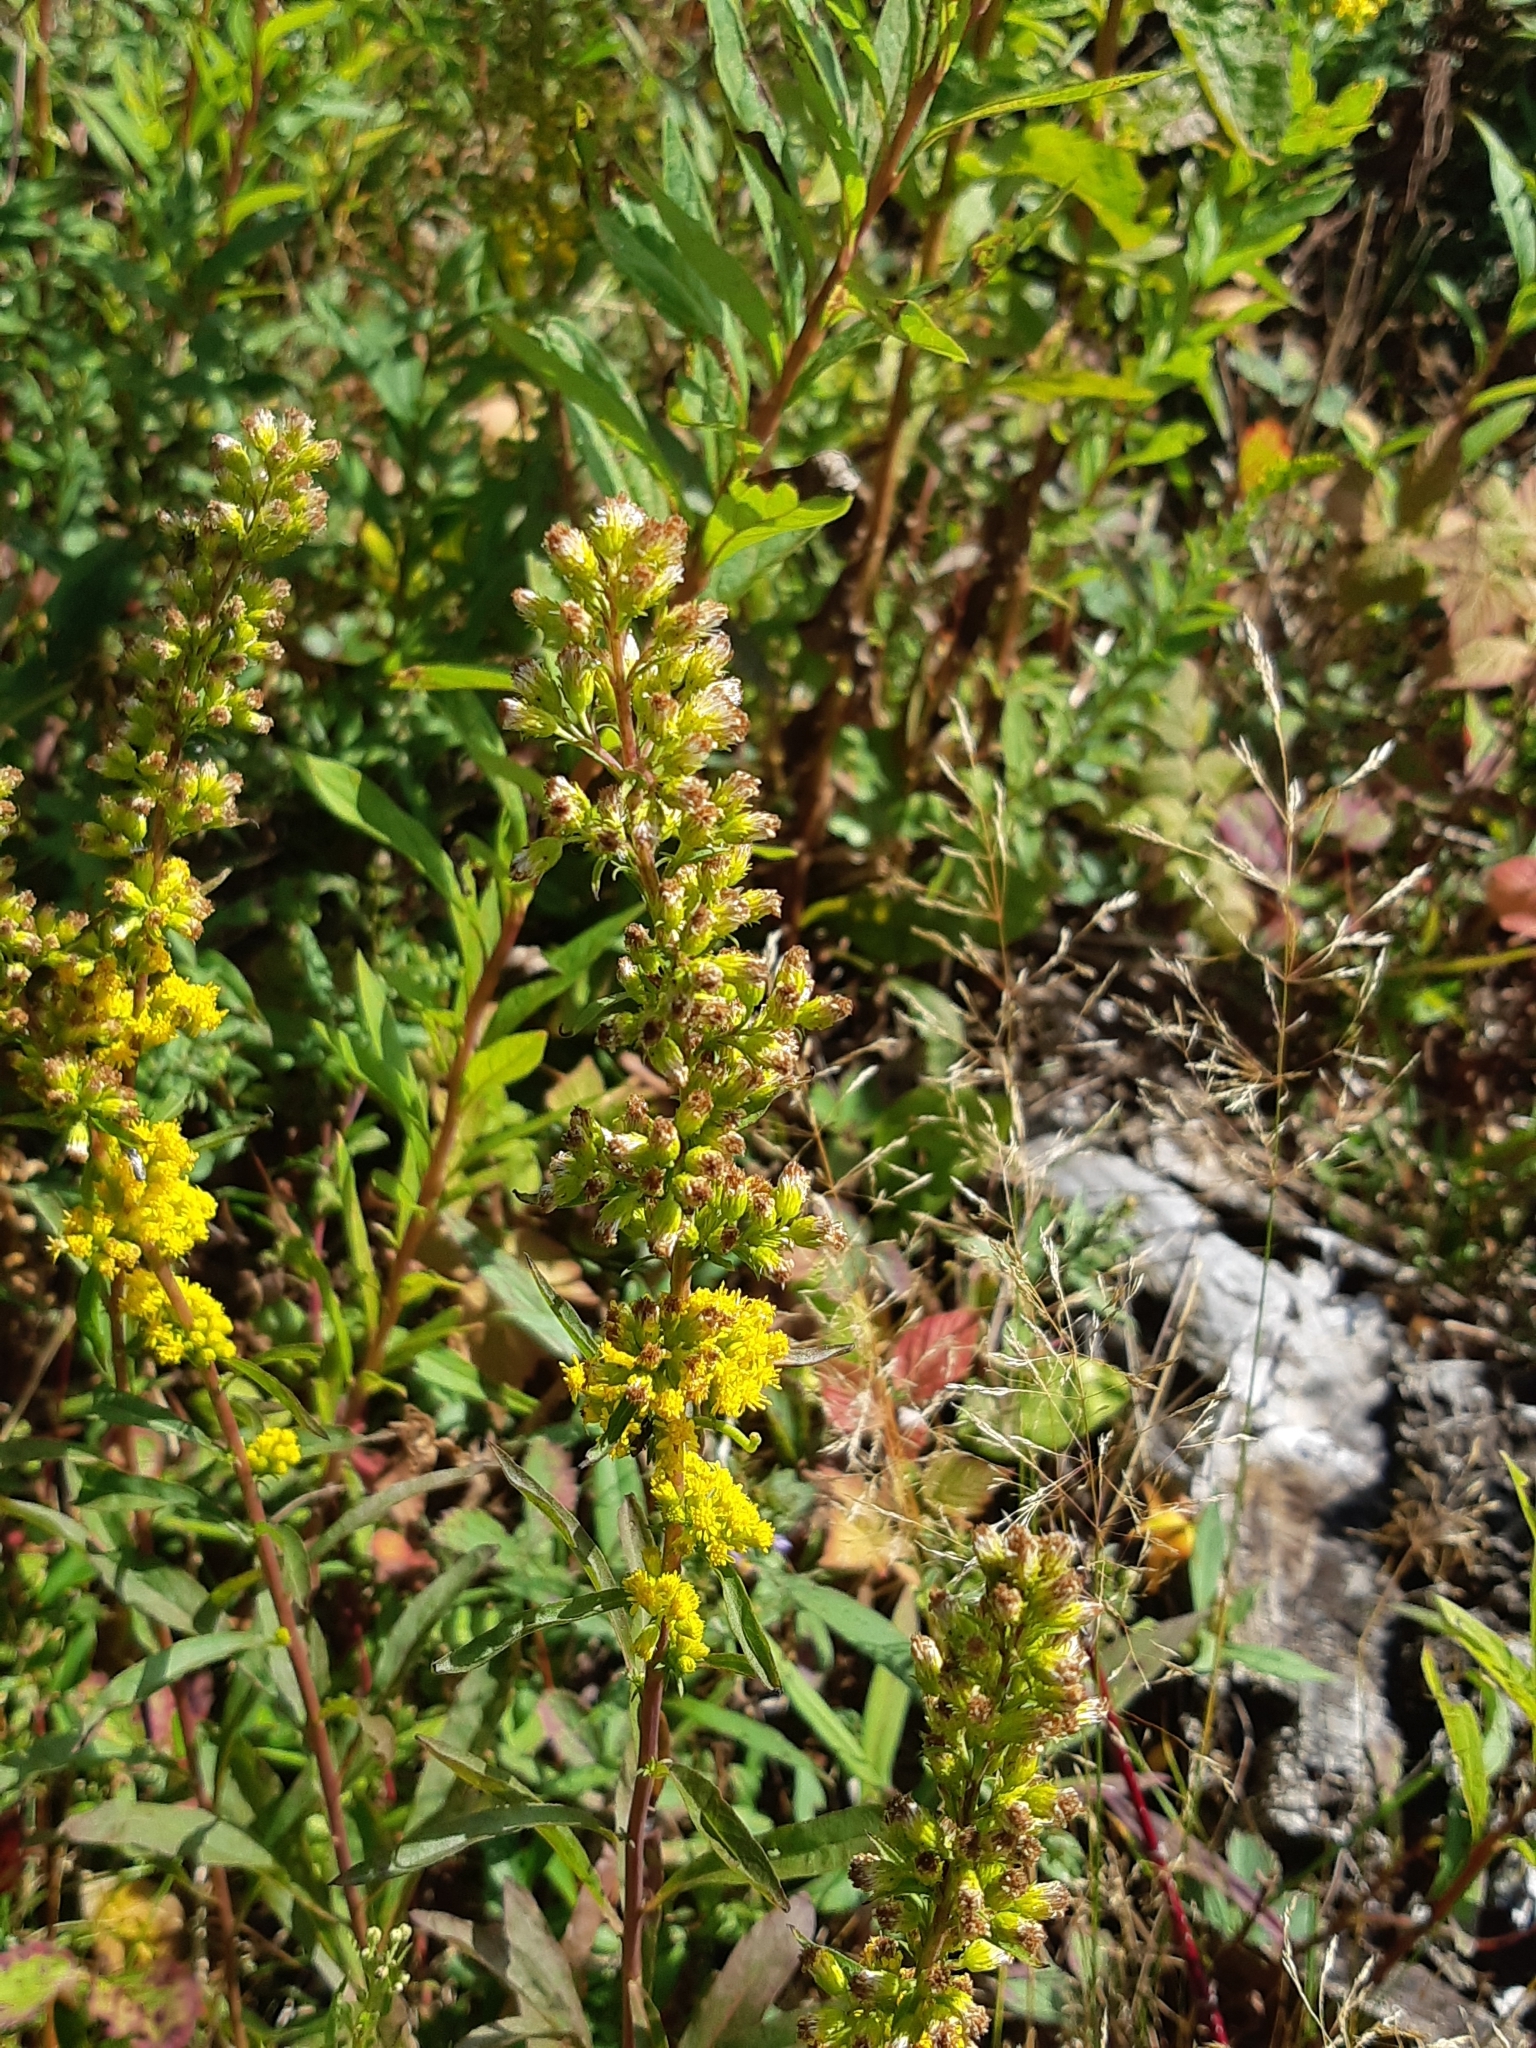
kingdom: Plantae
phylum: Tracheophyta
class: Magnoliopsida
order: Asterales
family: Asteraceae
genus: Solidago
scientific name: Solidago puberula
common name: Downy goldenrod
